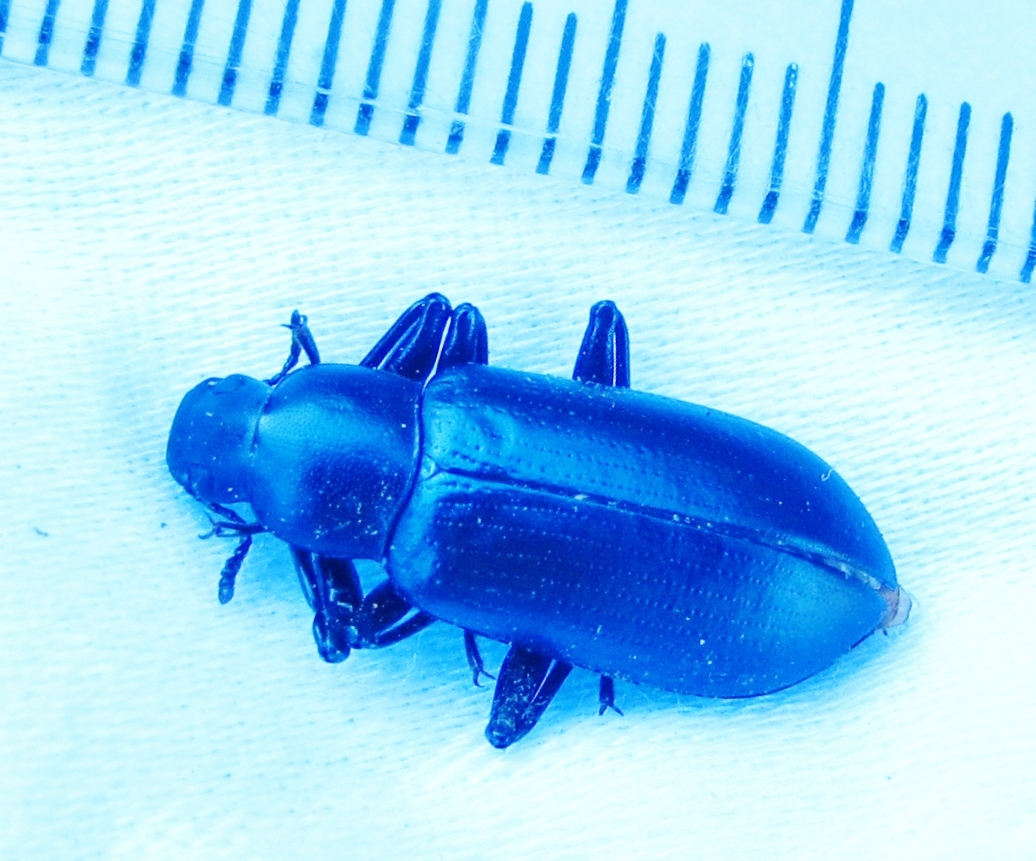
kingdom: Animalia
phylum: Arthropoda
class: Insecta
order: Coleoptera
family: Tenebrionidae
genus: Alobates
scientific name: Alobates pensylvanicus
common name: False mealworm beetle
